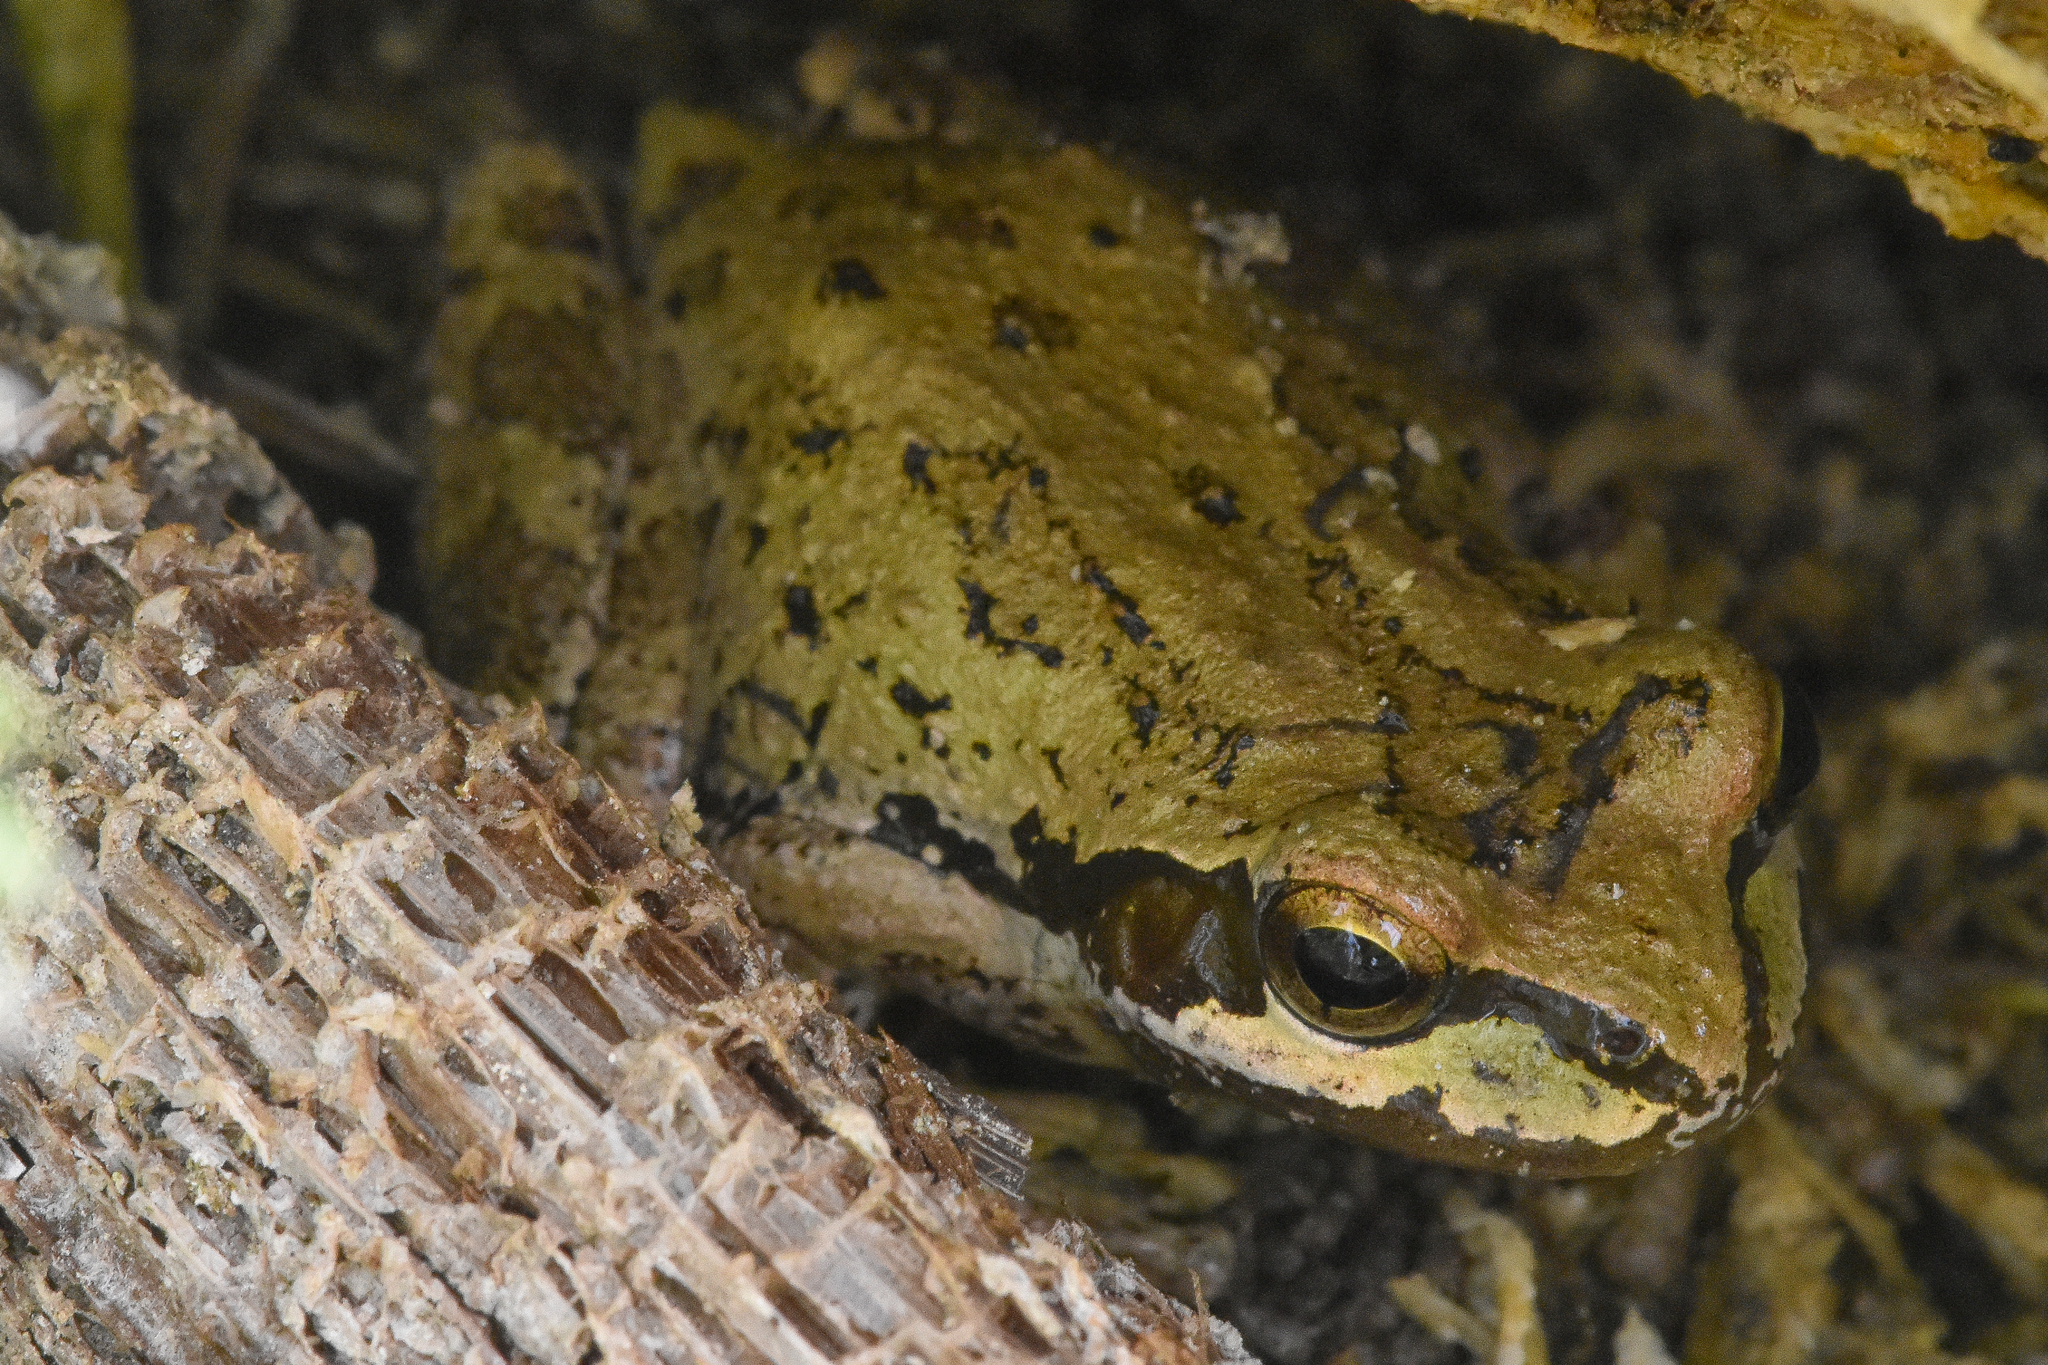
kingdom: Animalia
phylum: Chordata
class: Amphibia
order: Anura
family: Hylidae
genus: Pseudacris
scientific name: Pseudacris regilla
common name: Pacific chorus frog
